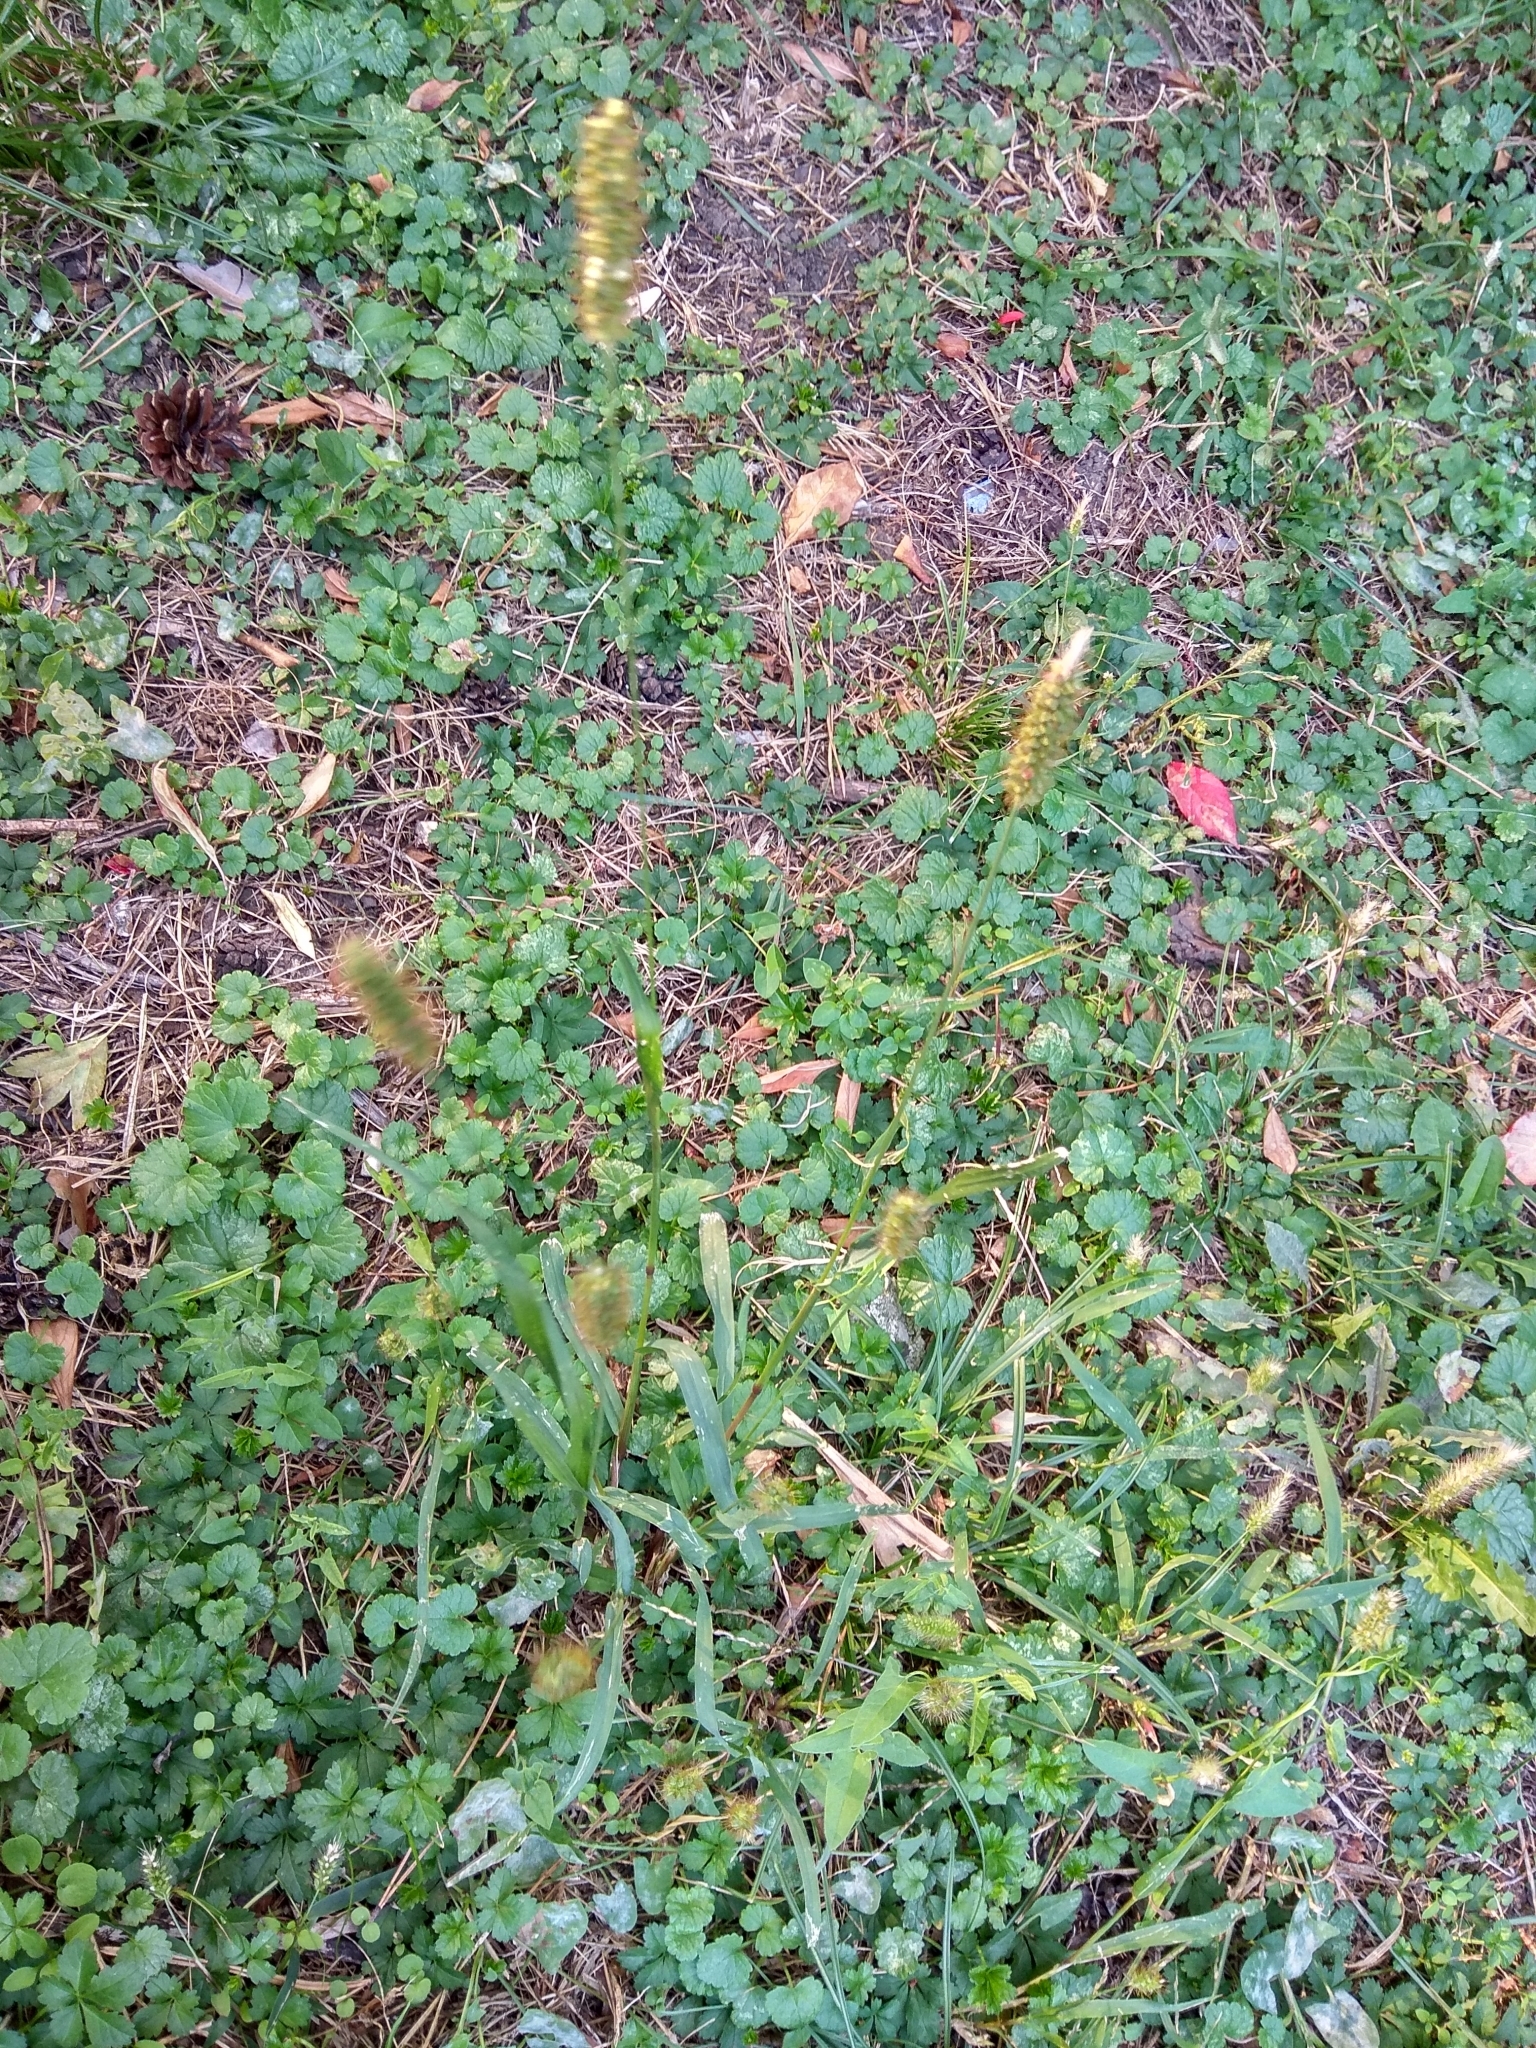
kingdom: Plantae
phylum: Tracheophyta
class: Liliopsida
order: Poales
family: Poaceae
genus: Setaria
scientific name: Setaria pumila
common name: Yellow bristle-grass
